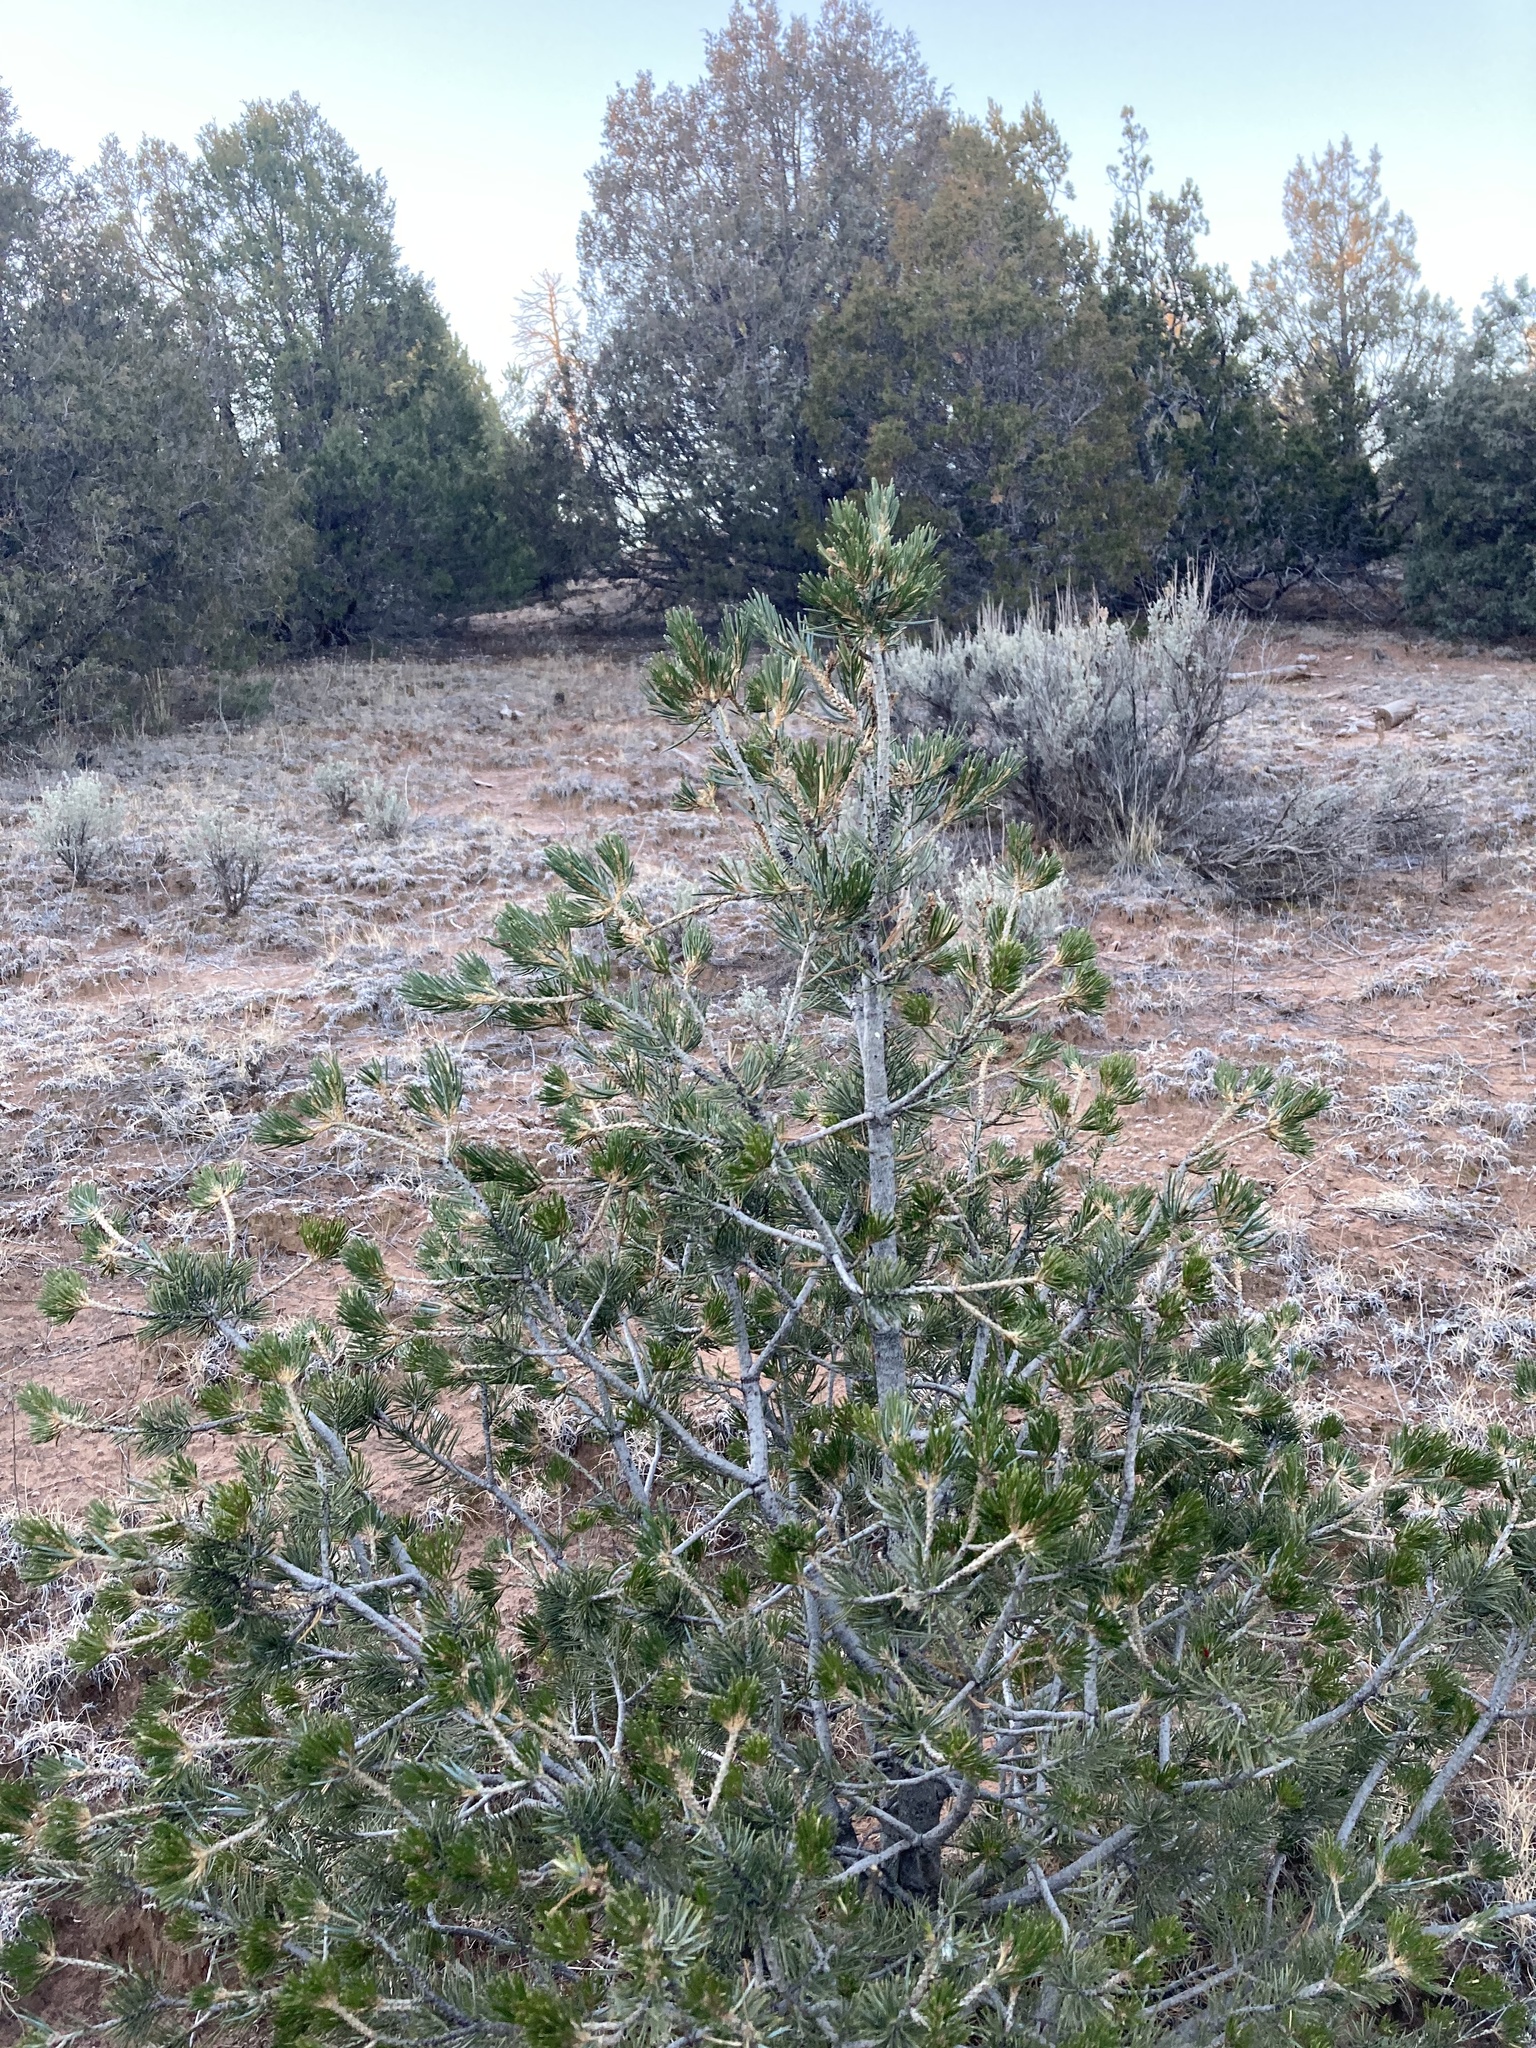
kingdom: Plantae
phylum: Tracheophyta
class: Pinopsida
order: Pinales
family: Pinaceae
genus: Pinus
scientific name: Pinus edulis
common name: Colorado pinyon
